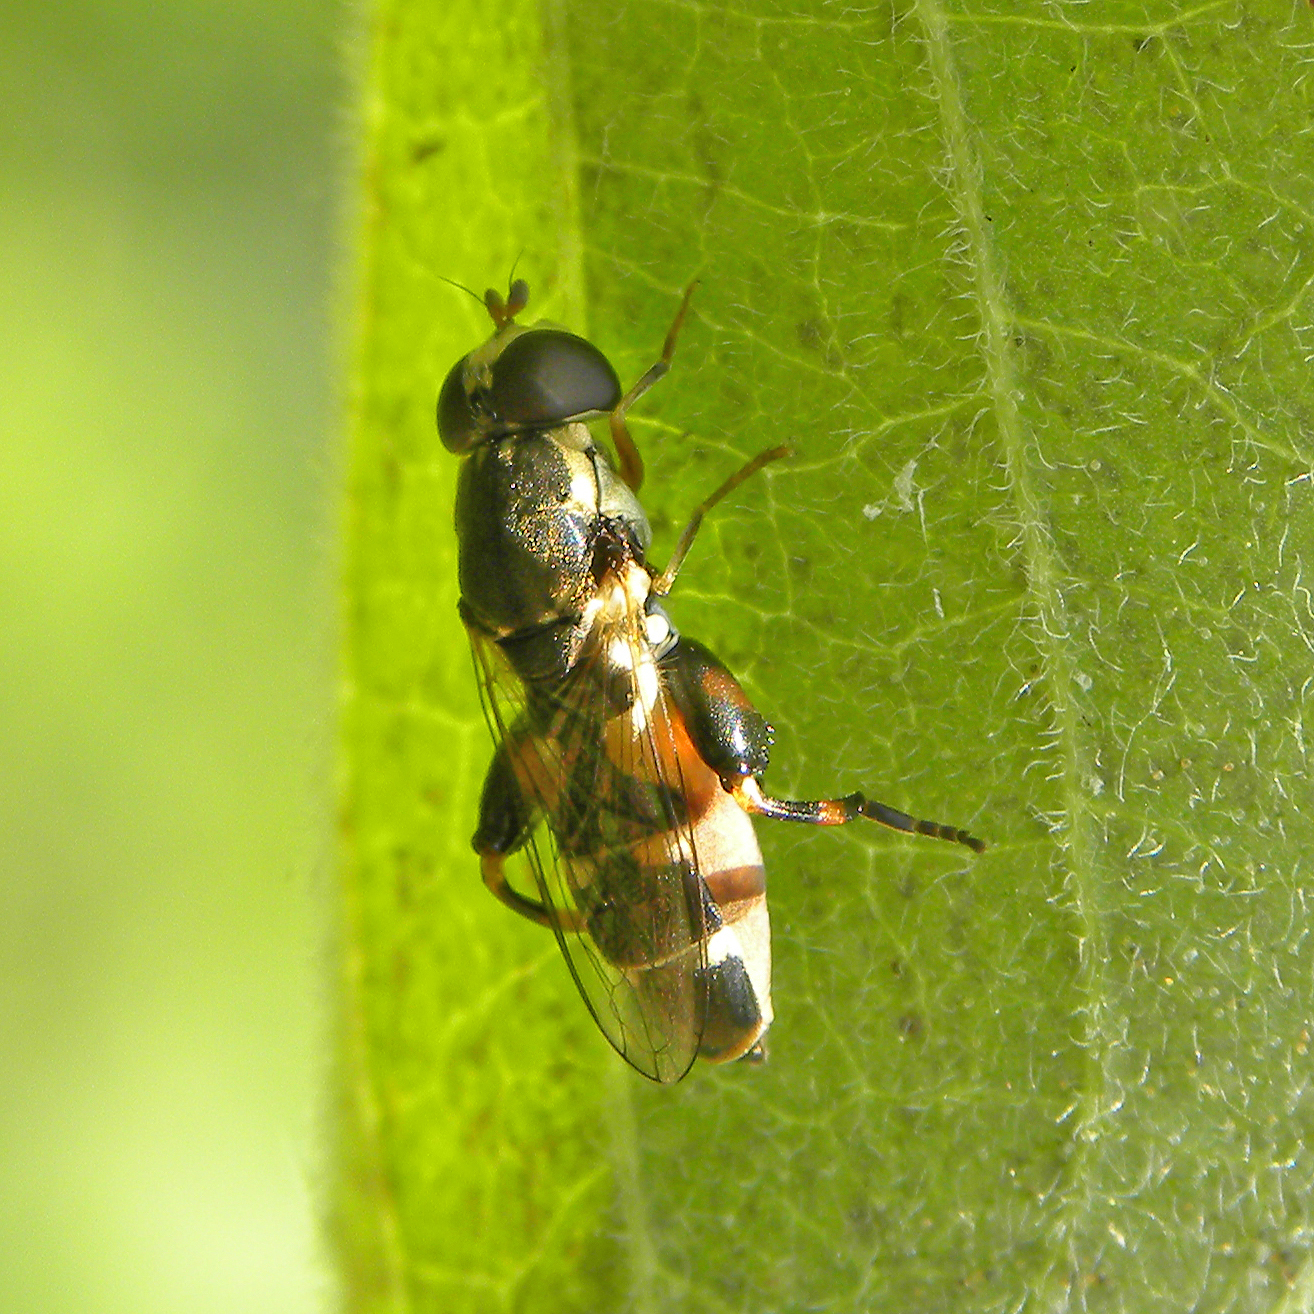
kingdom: Animalia
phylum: Arthropoda
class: Insecta
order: Diptera
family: Syrphidae
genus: Syritta
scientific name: Syritta pipiens
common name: Hover fly
